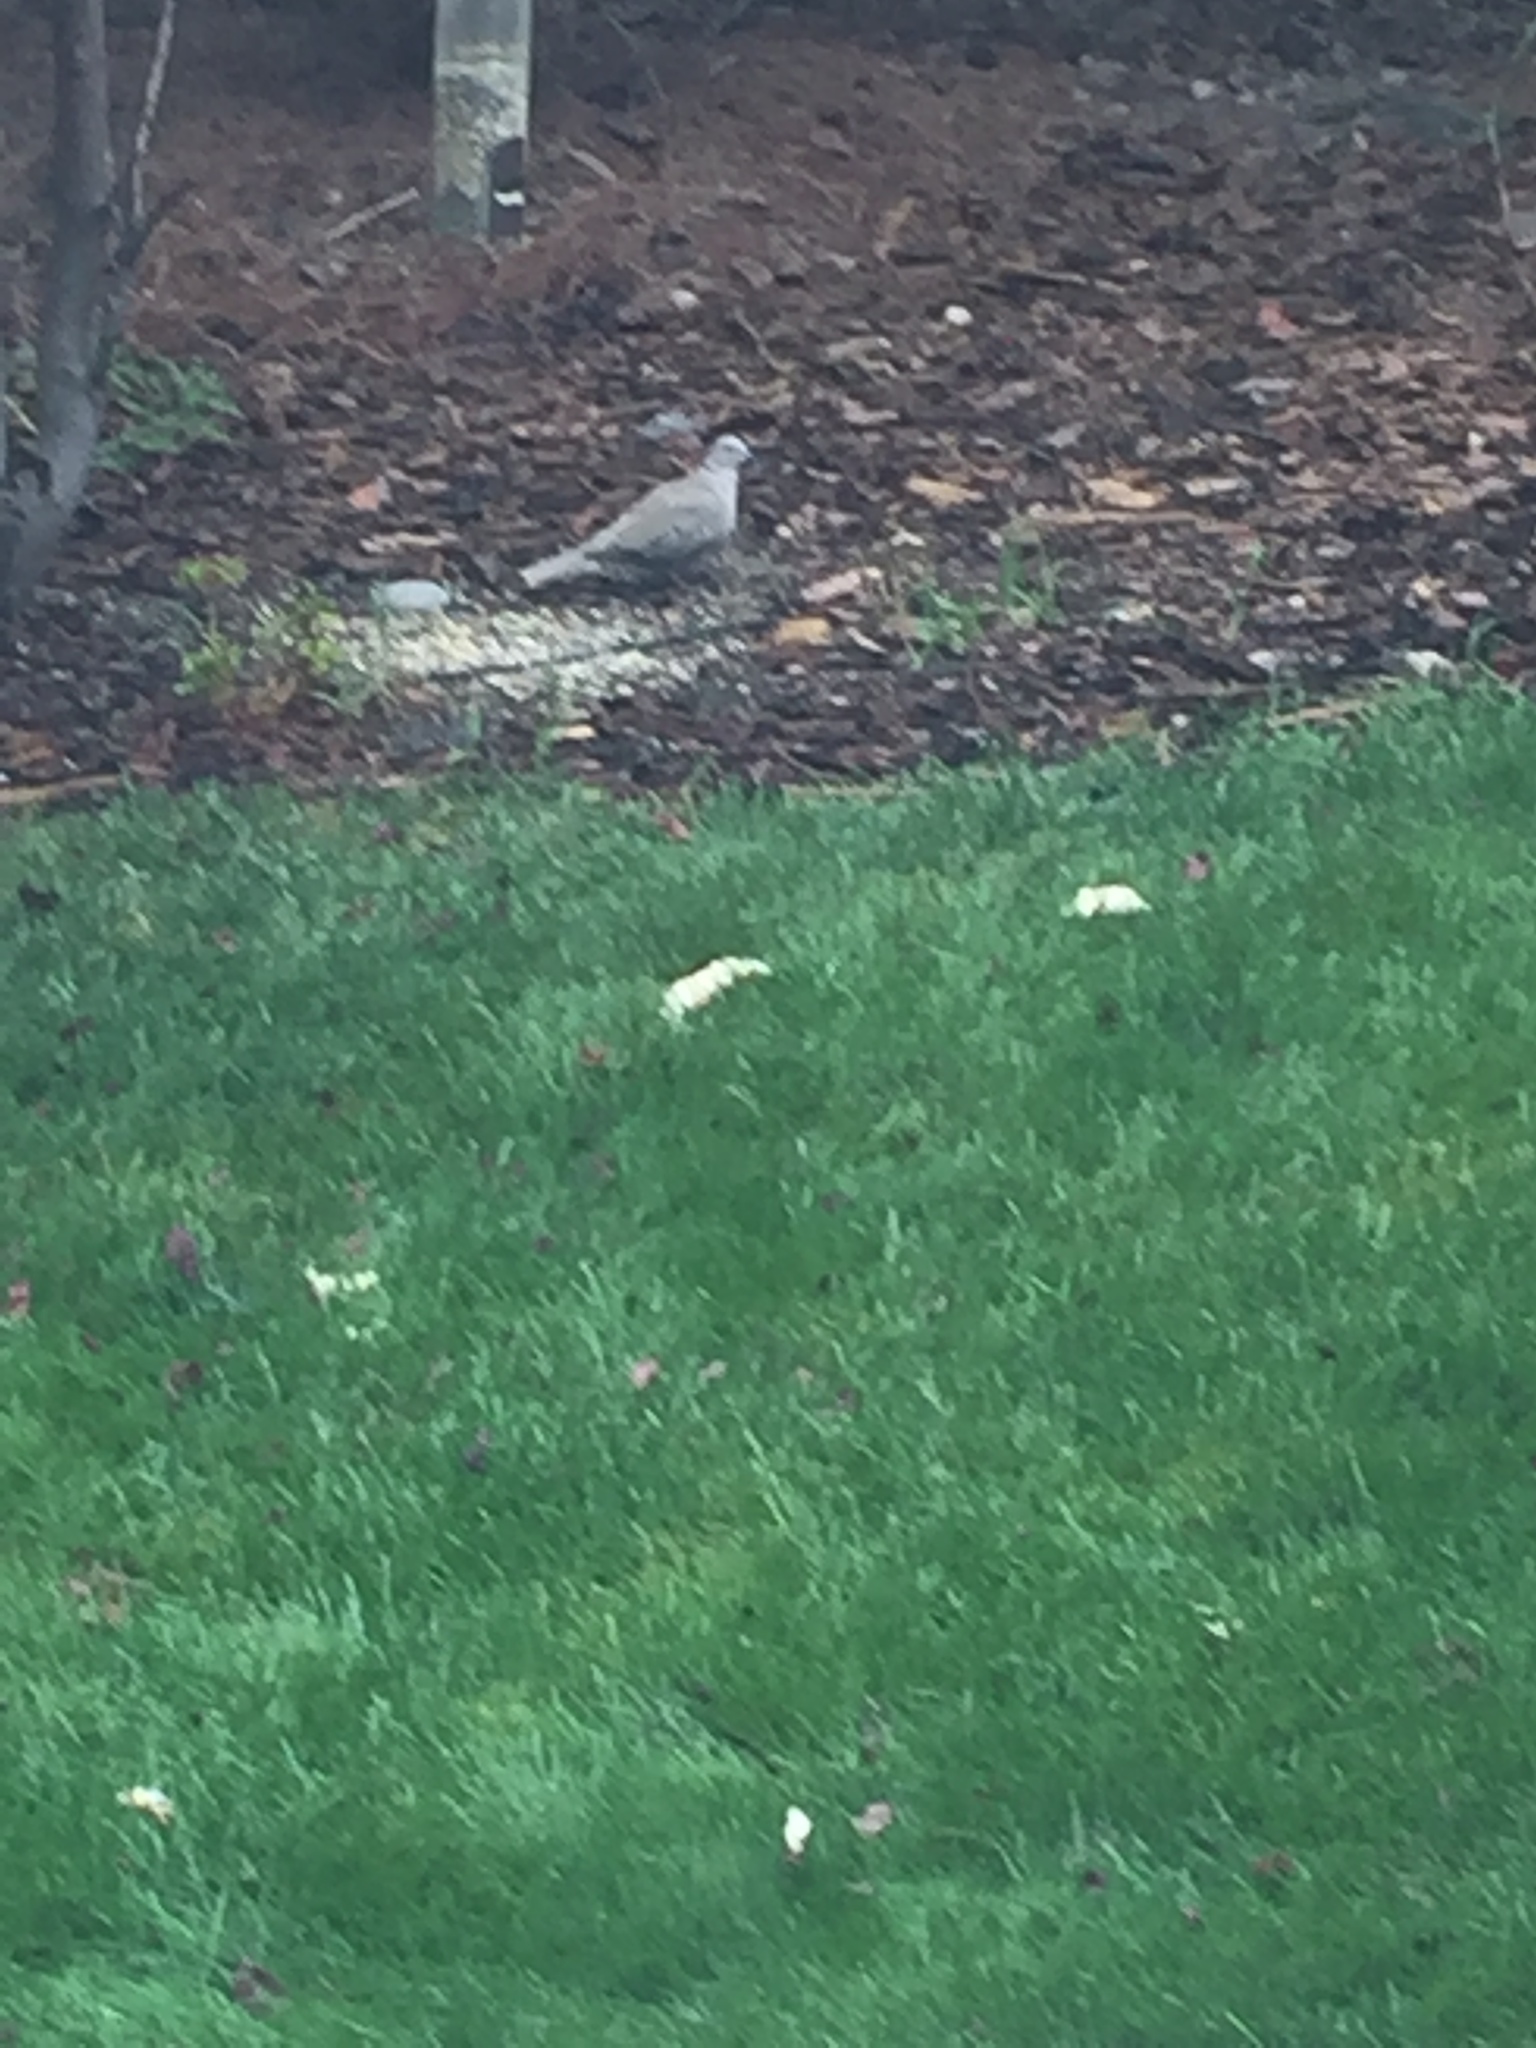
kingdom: Animalia
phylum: Chordata
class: Aves
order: Columbiformes
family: Columbidae
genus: Streptopelia
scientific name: Streptopelia decaocto
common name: Eurasian collared dove
